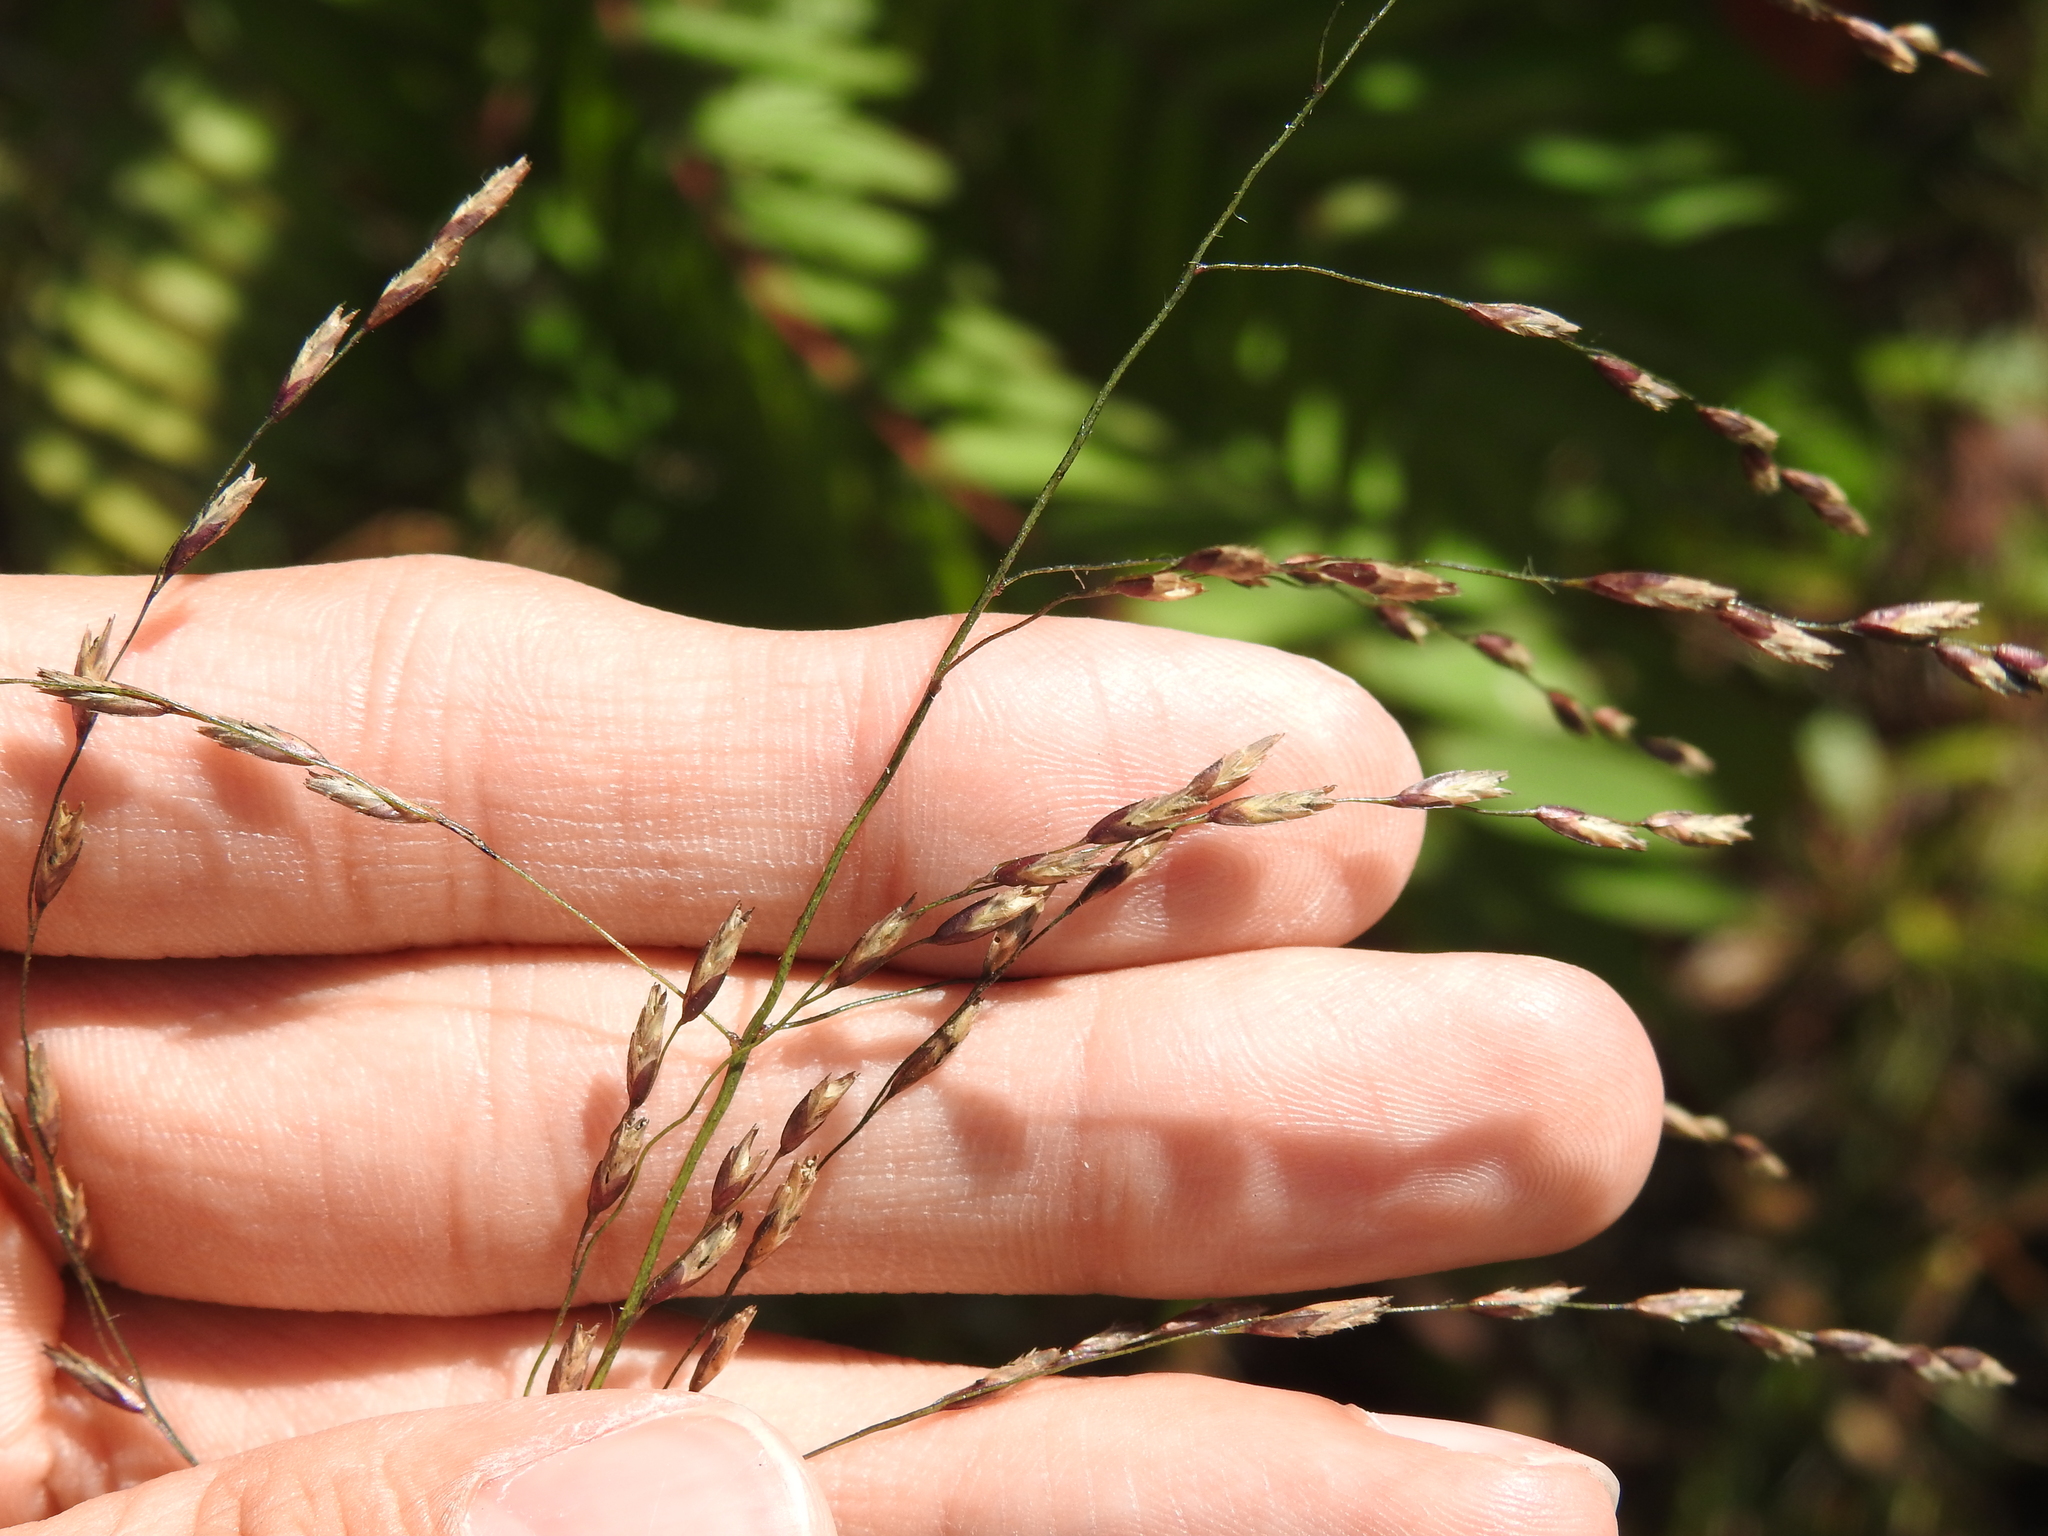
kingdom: Plantae
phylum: Tracheophyta
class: Liliopsida
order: Poales
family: Poaceae
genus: Tridens
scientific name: Tridens flavus
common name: Purpletop
